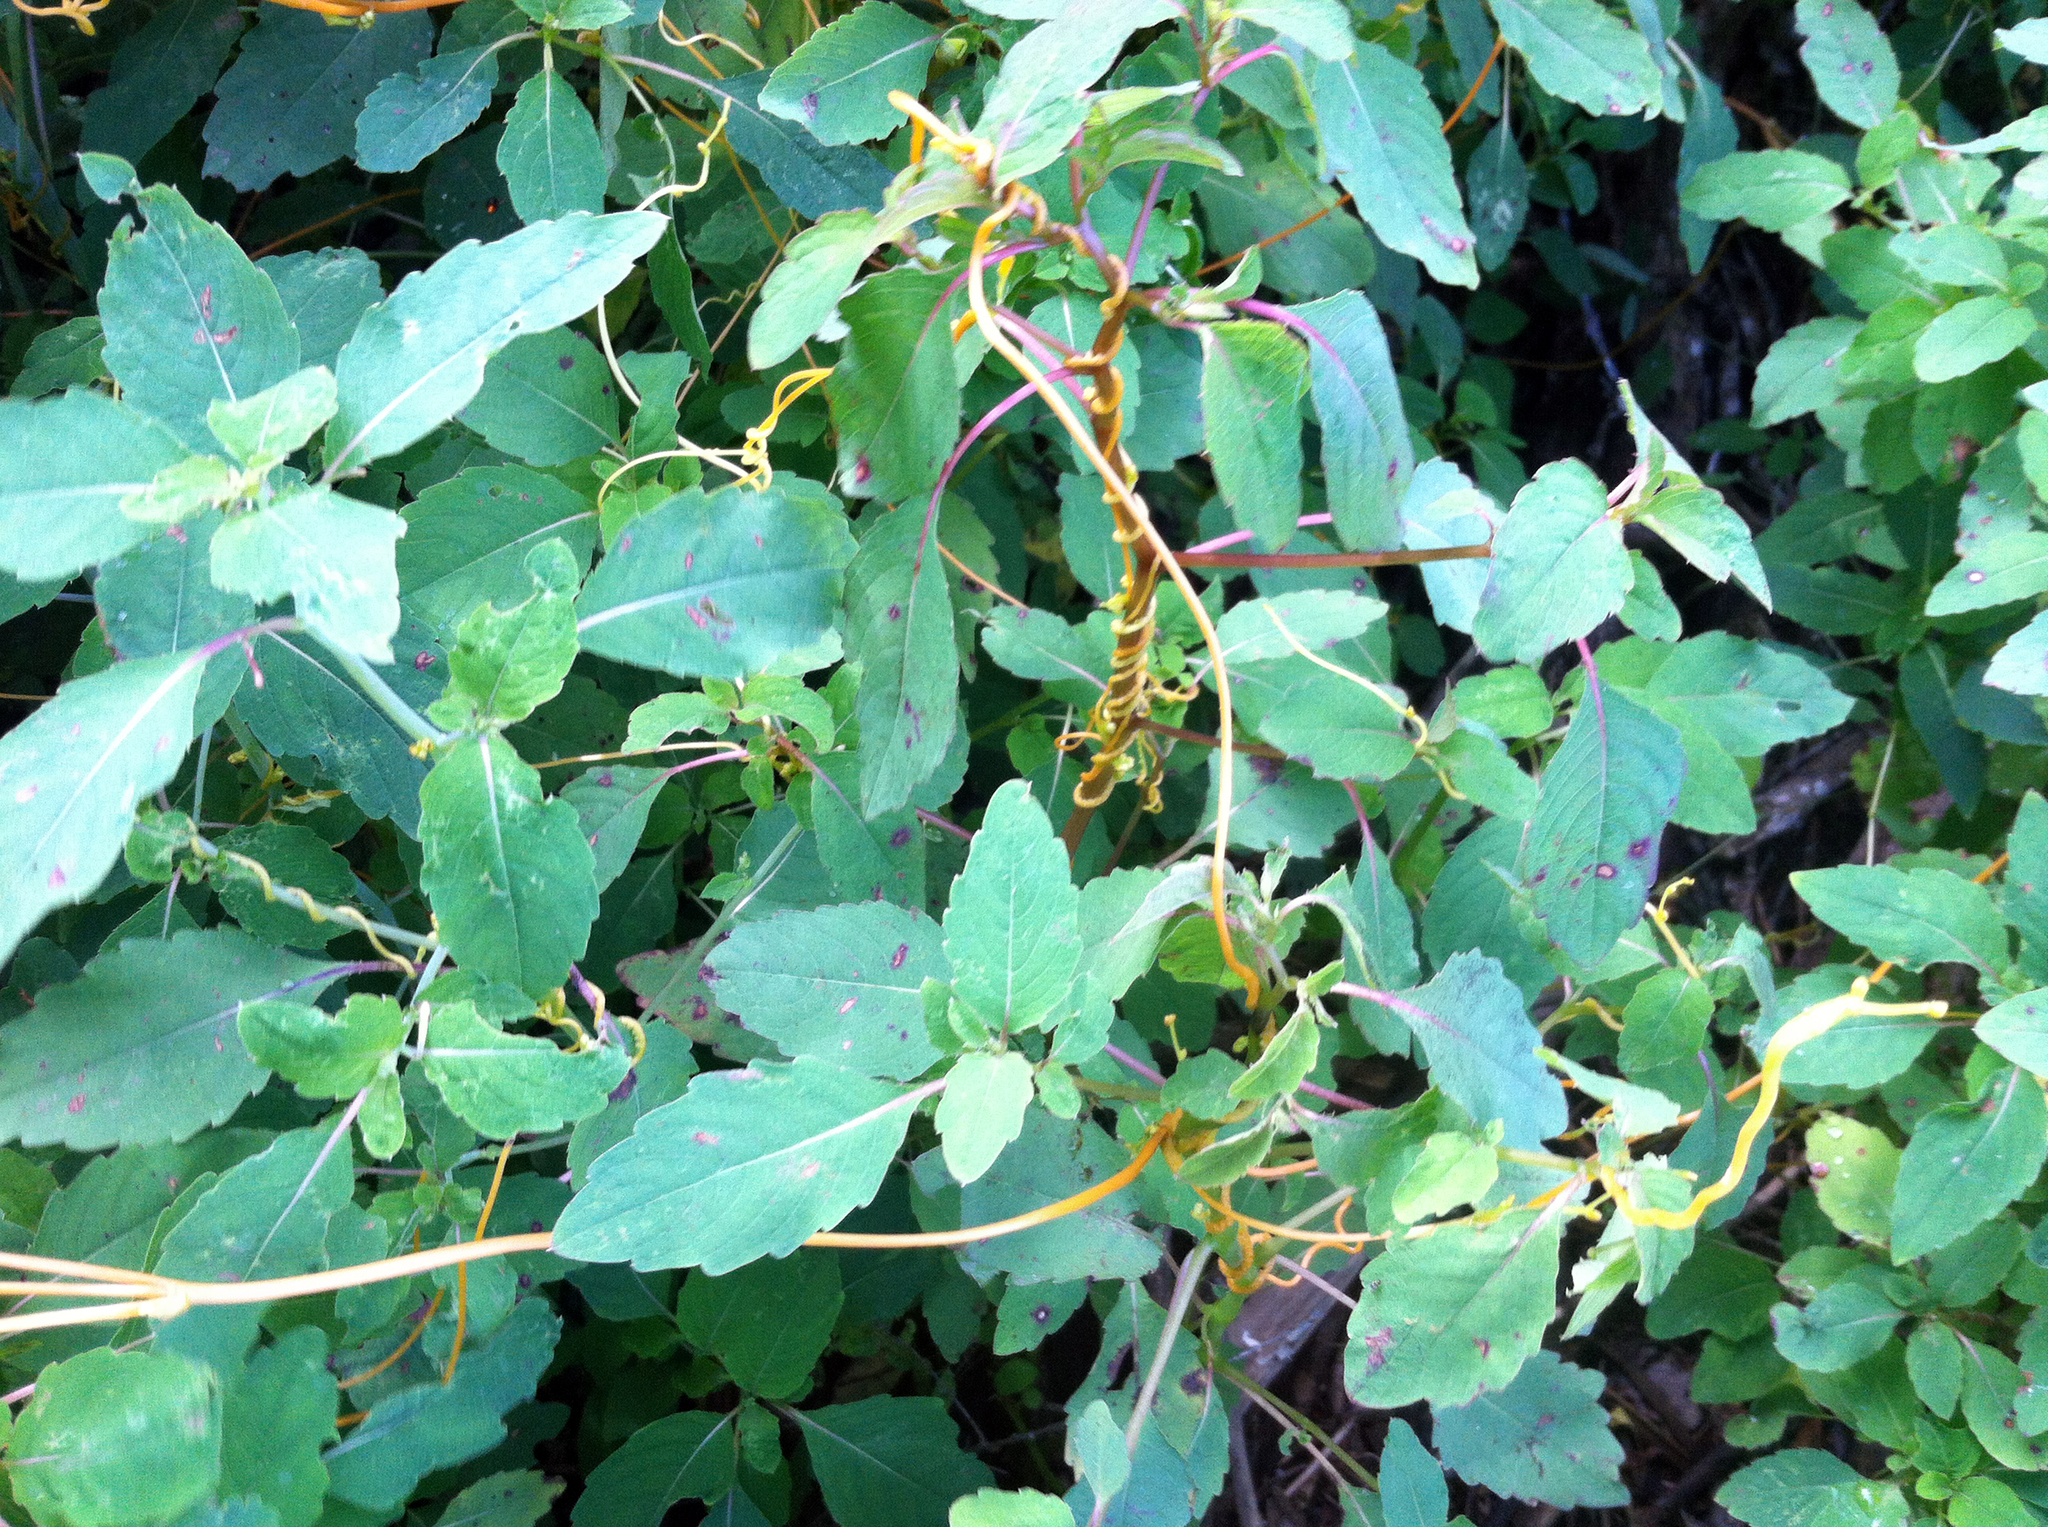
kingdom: Plantae
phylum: Tracheophyta
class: Magnoliopsida
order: Solanales
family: Convolvulaceae
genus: Cuscuta
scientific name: Cuscuta gronovii
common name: Common dodder
